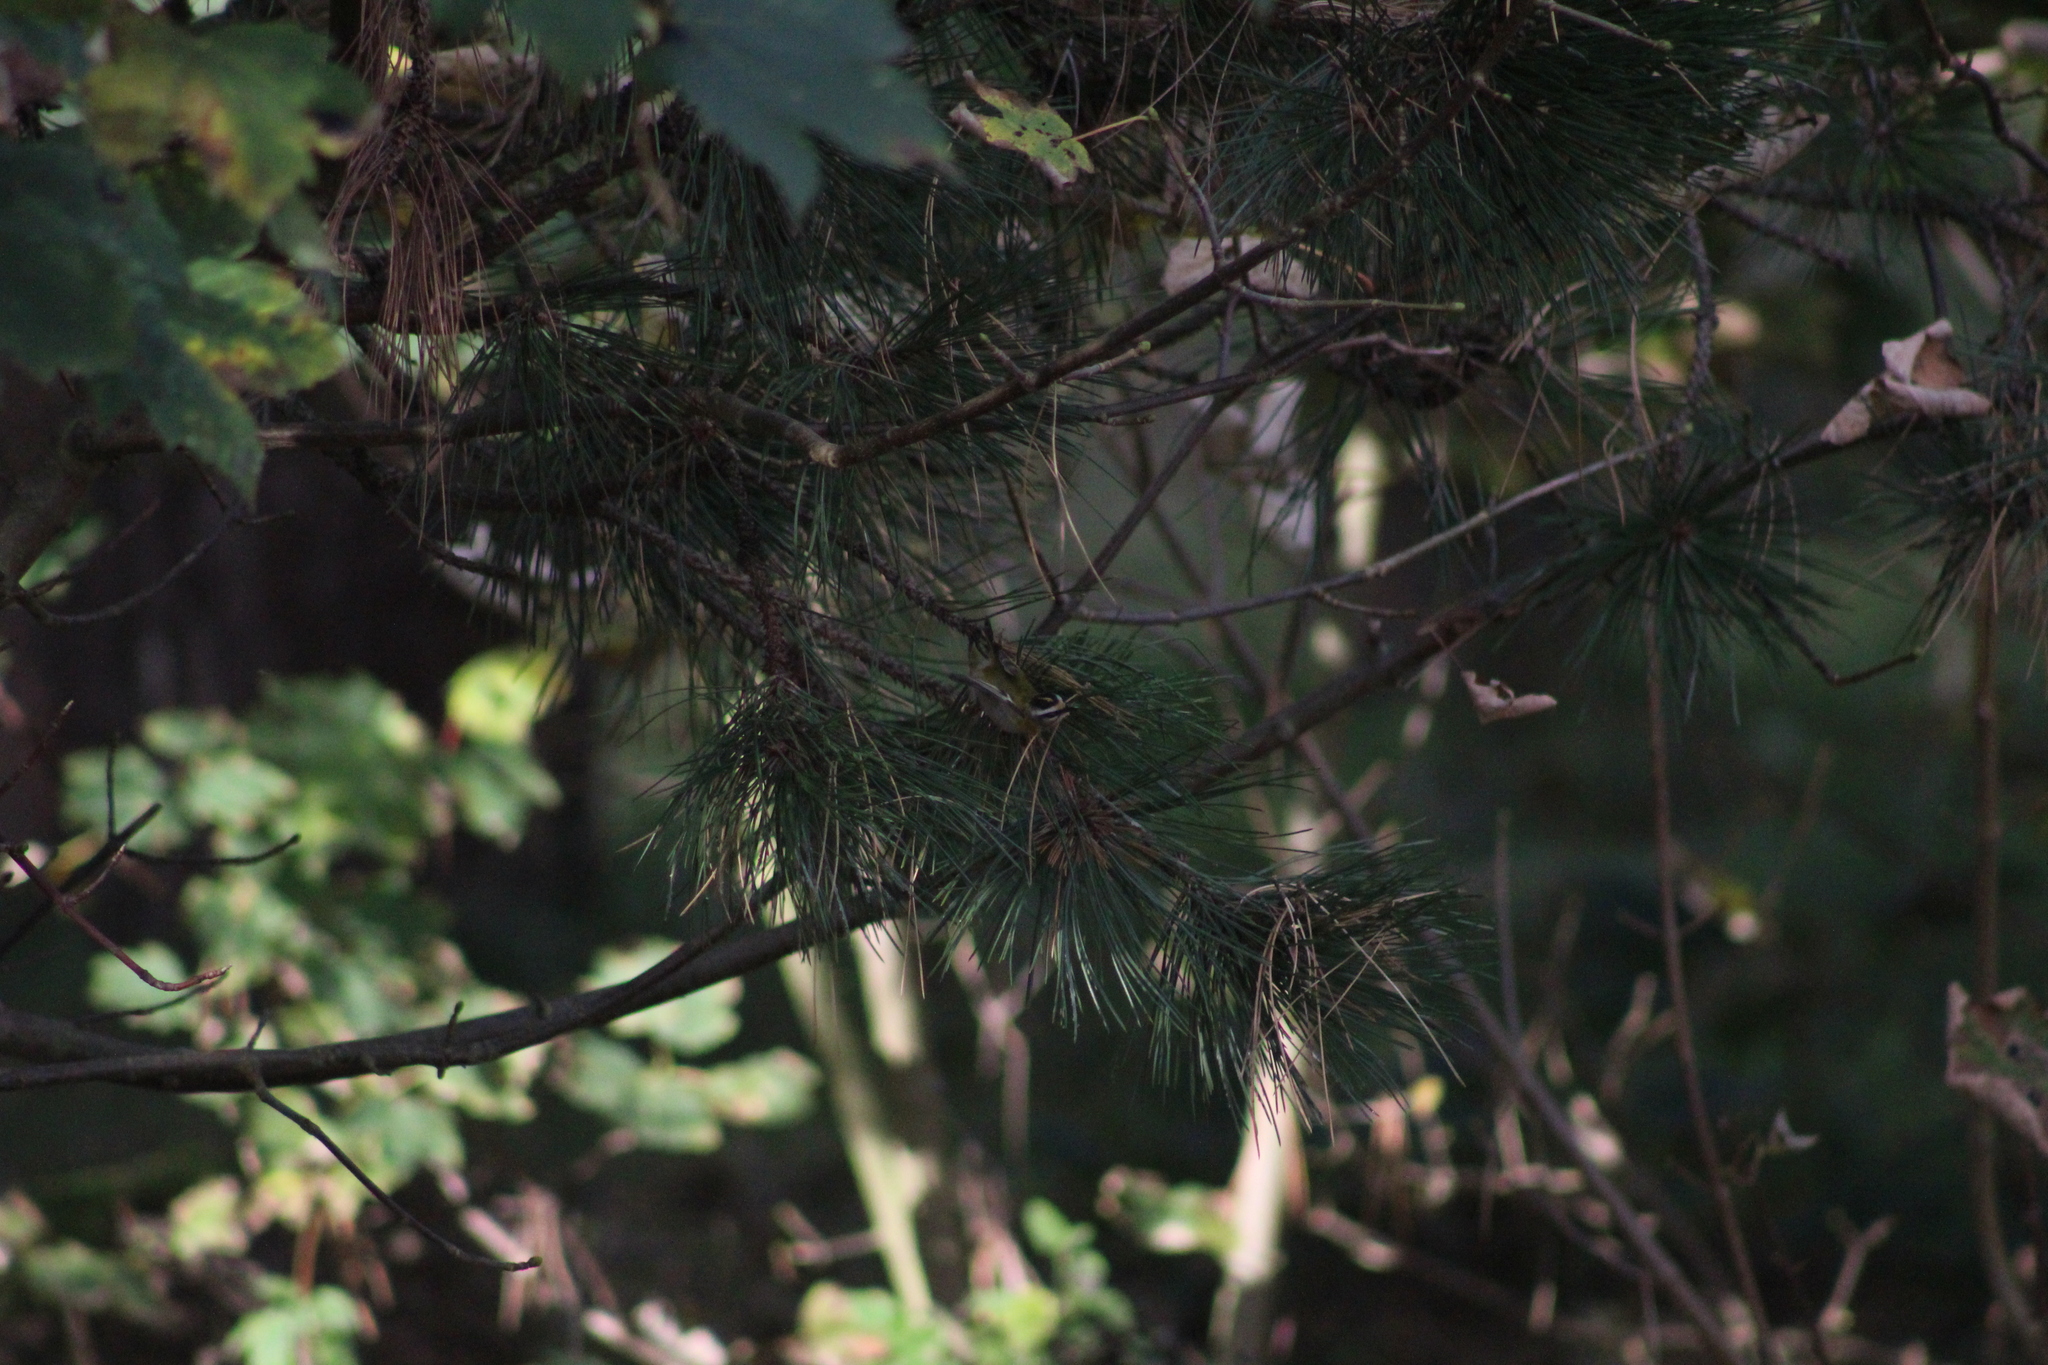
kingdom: Animalia
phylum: Chordata
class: Aves
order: Passeriformes
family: Regulidae
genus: Regulus
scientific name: Regulus ignicapilla
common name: Firecrest
